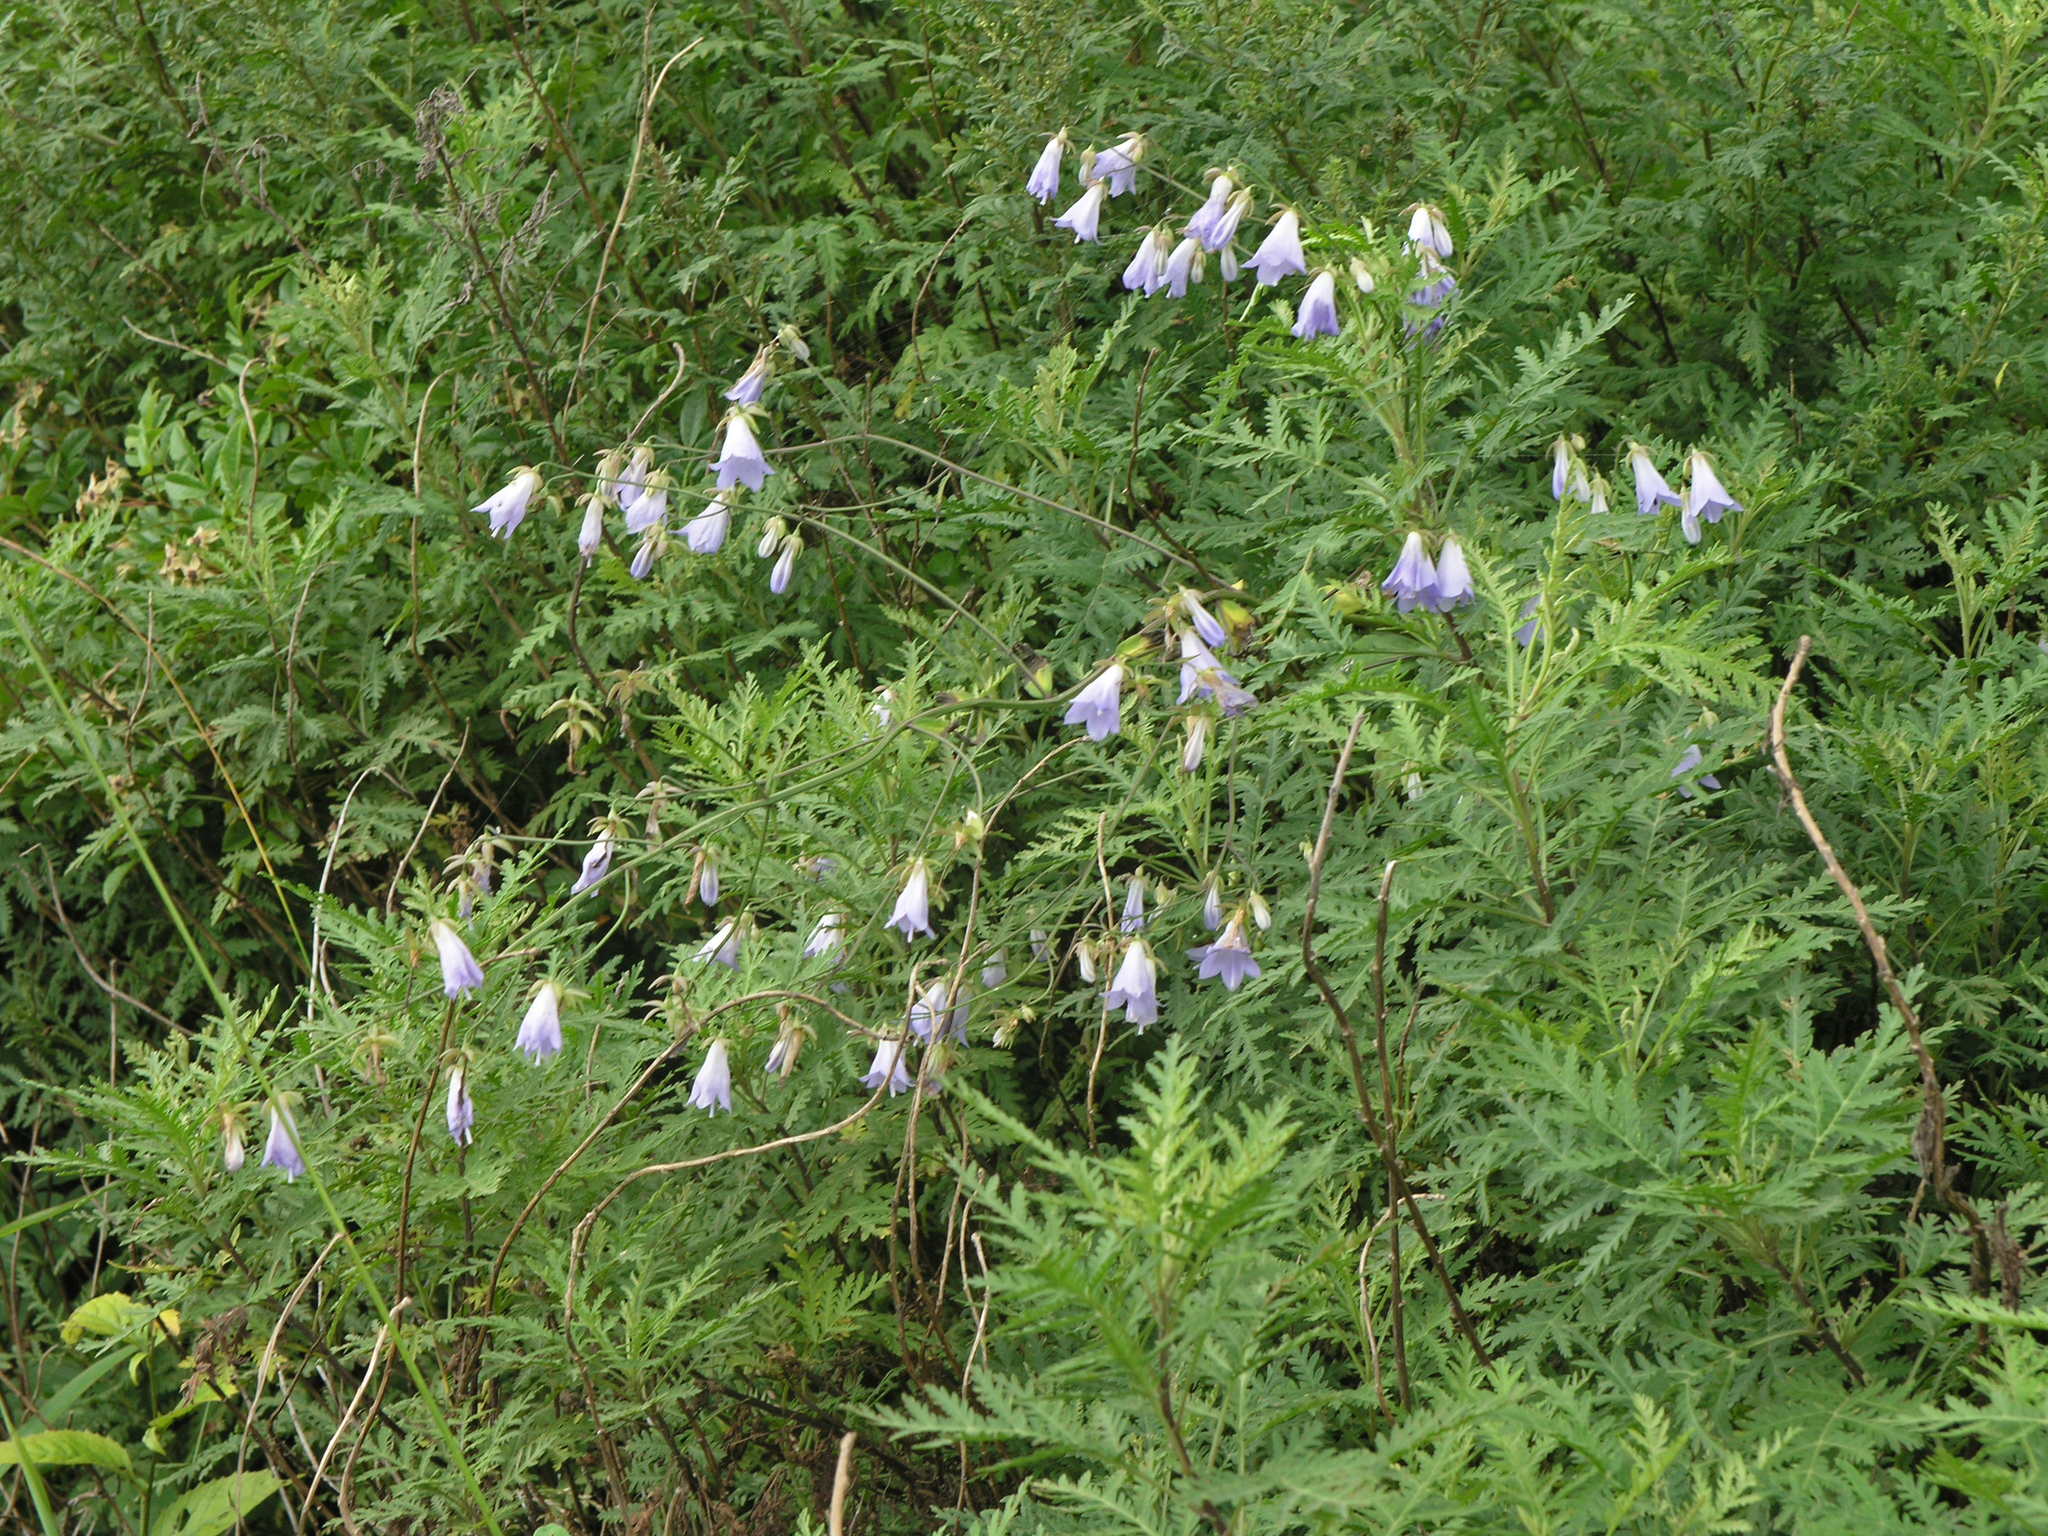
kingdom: Plantae
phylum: Tracheophyta
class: Magnoliopsida
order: Asterales
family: Campanulaceae
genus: Adenophora
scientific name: Adenophora divaricata
